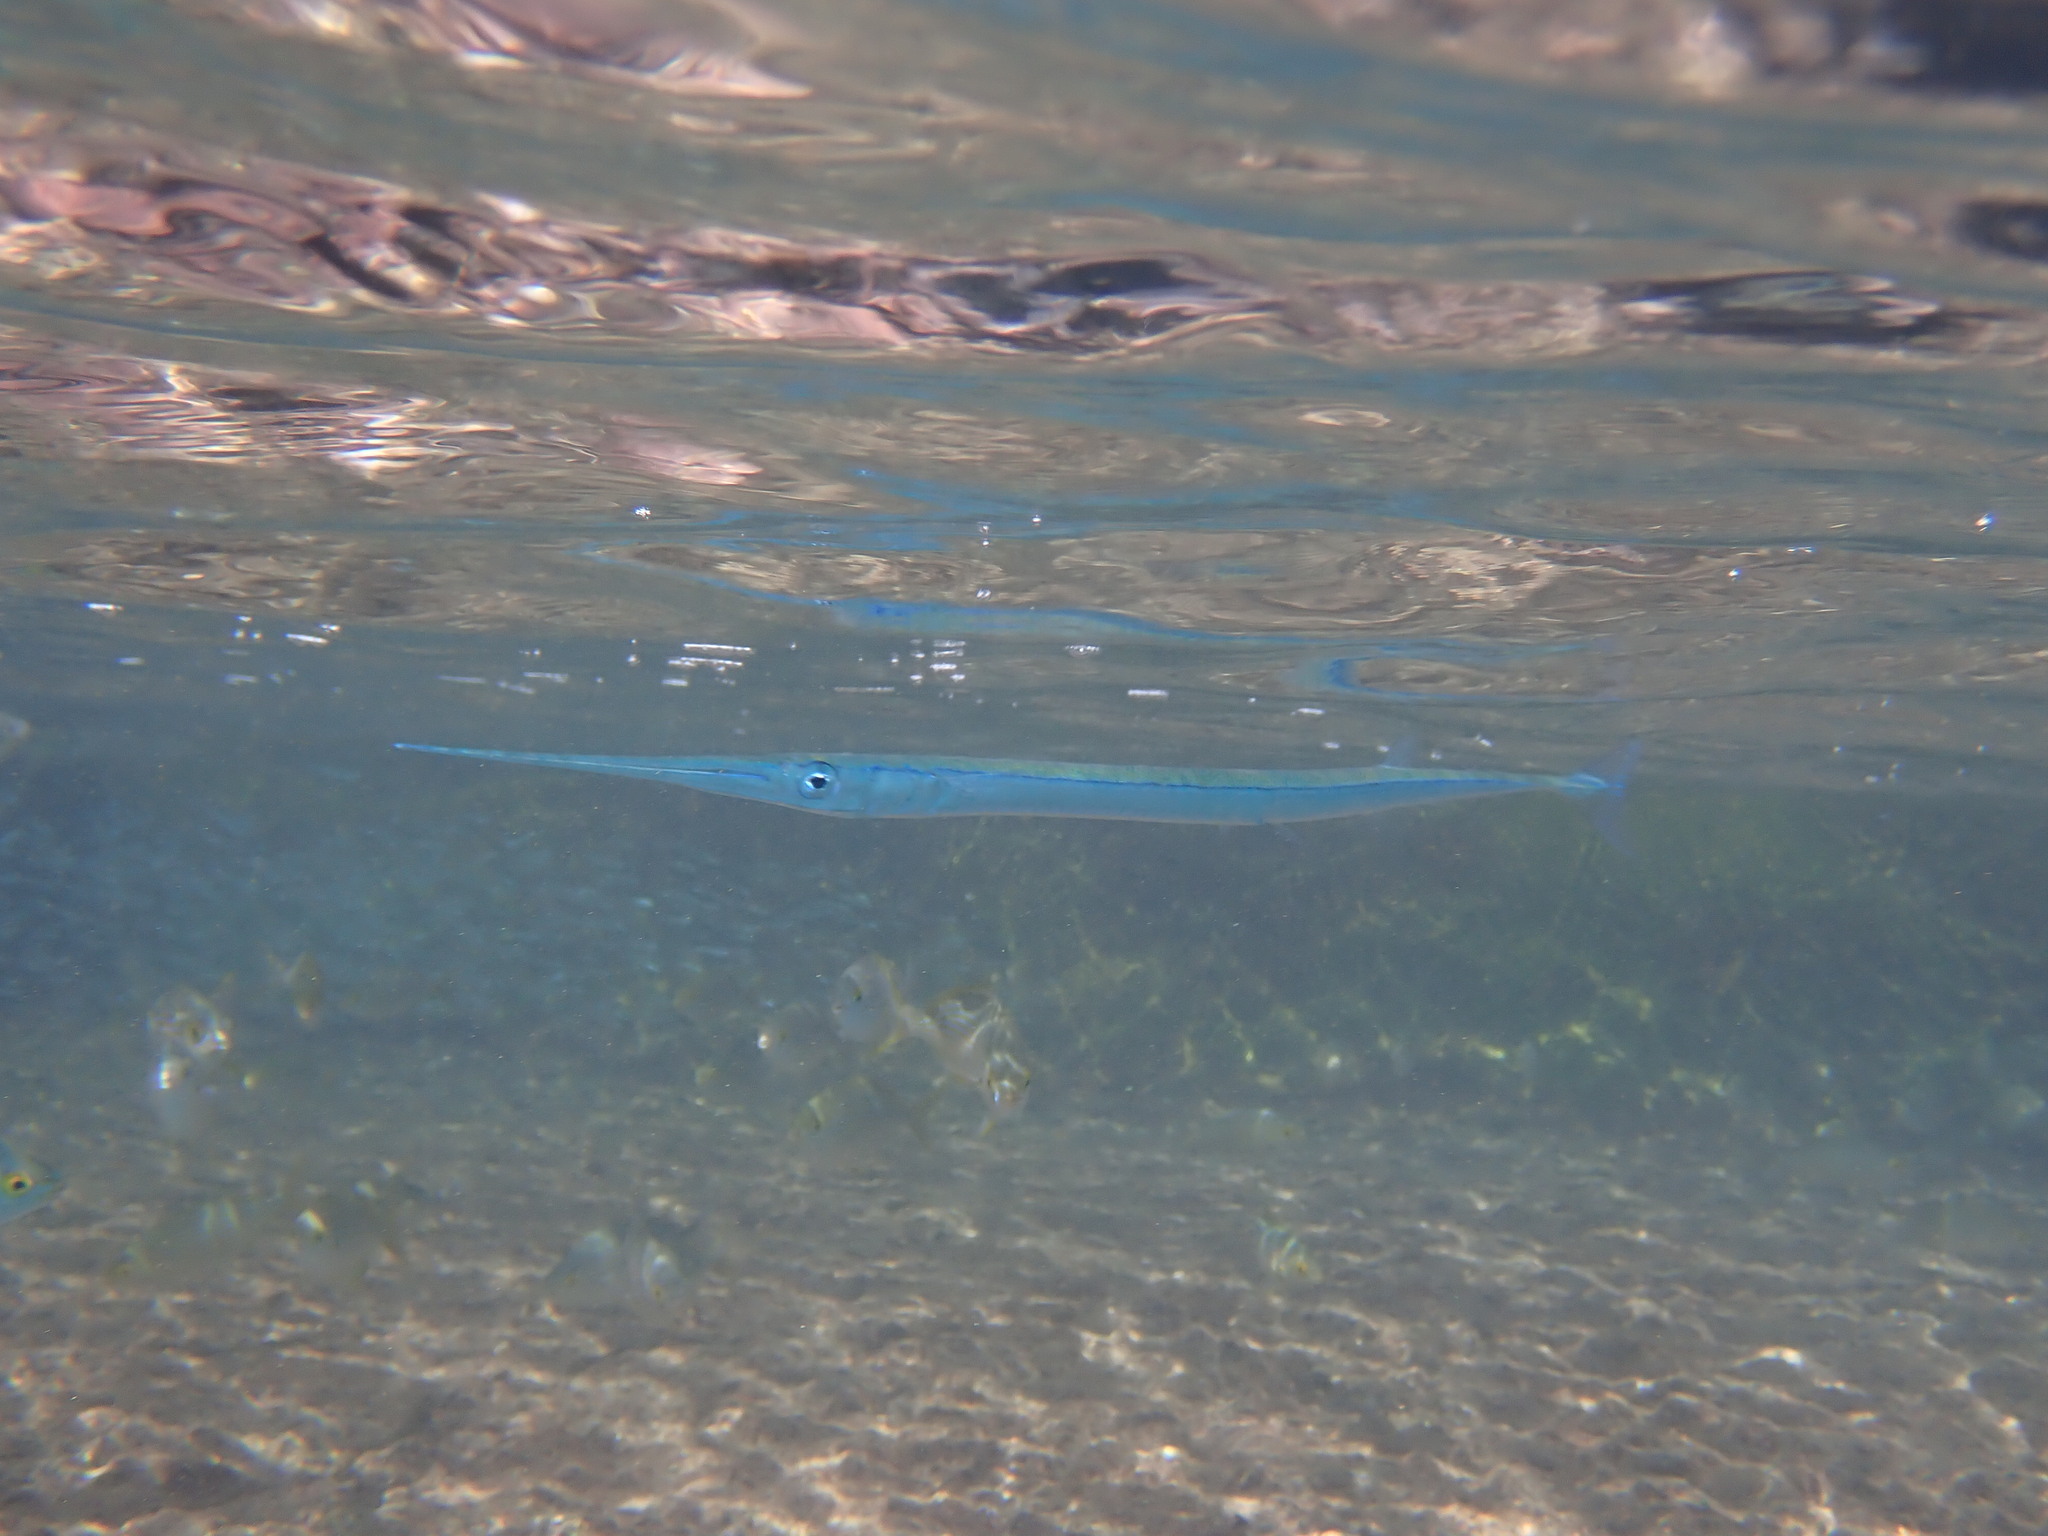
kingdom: Animalia
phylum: Chordata
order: Beloniformes
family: Belonidae
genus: Platybelone
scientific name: Platybelone argalus
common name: Keeltail needlefish
